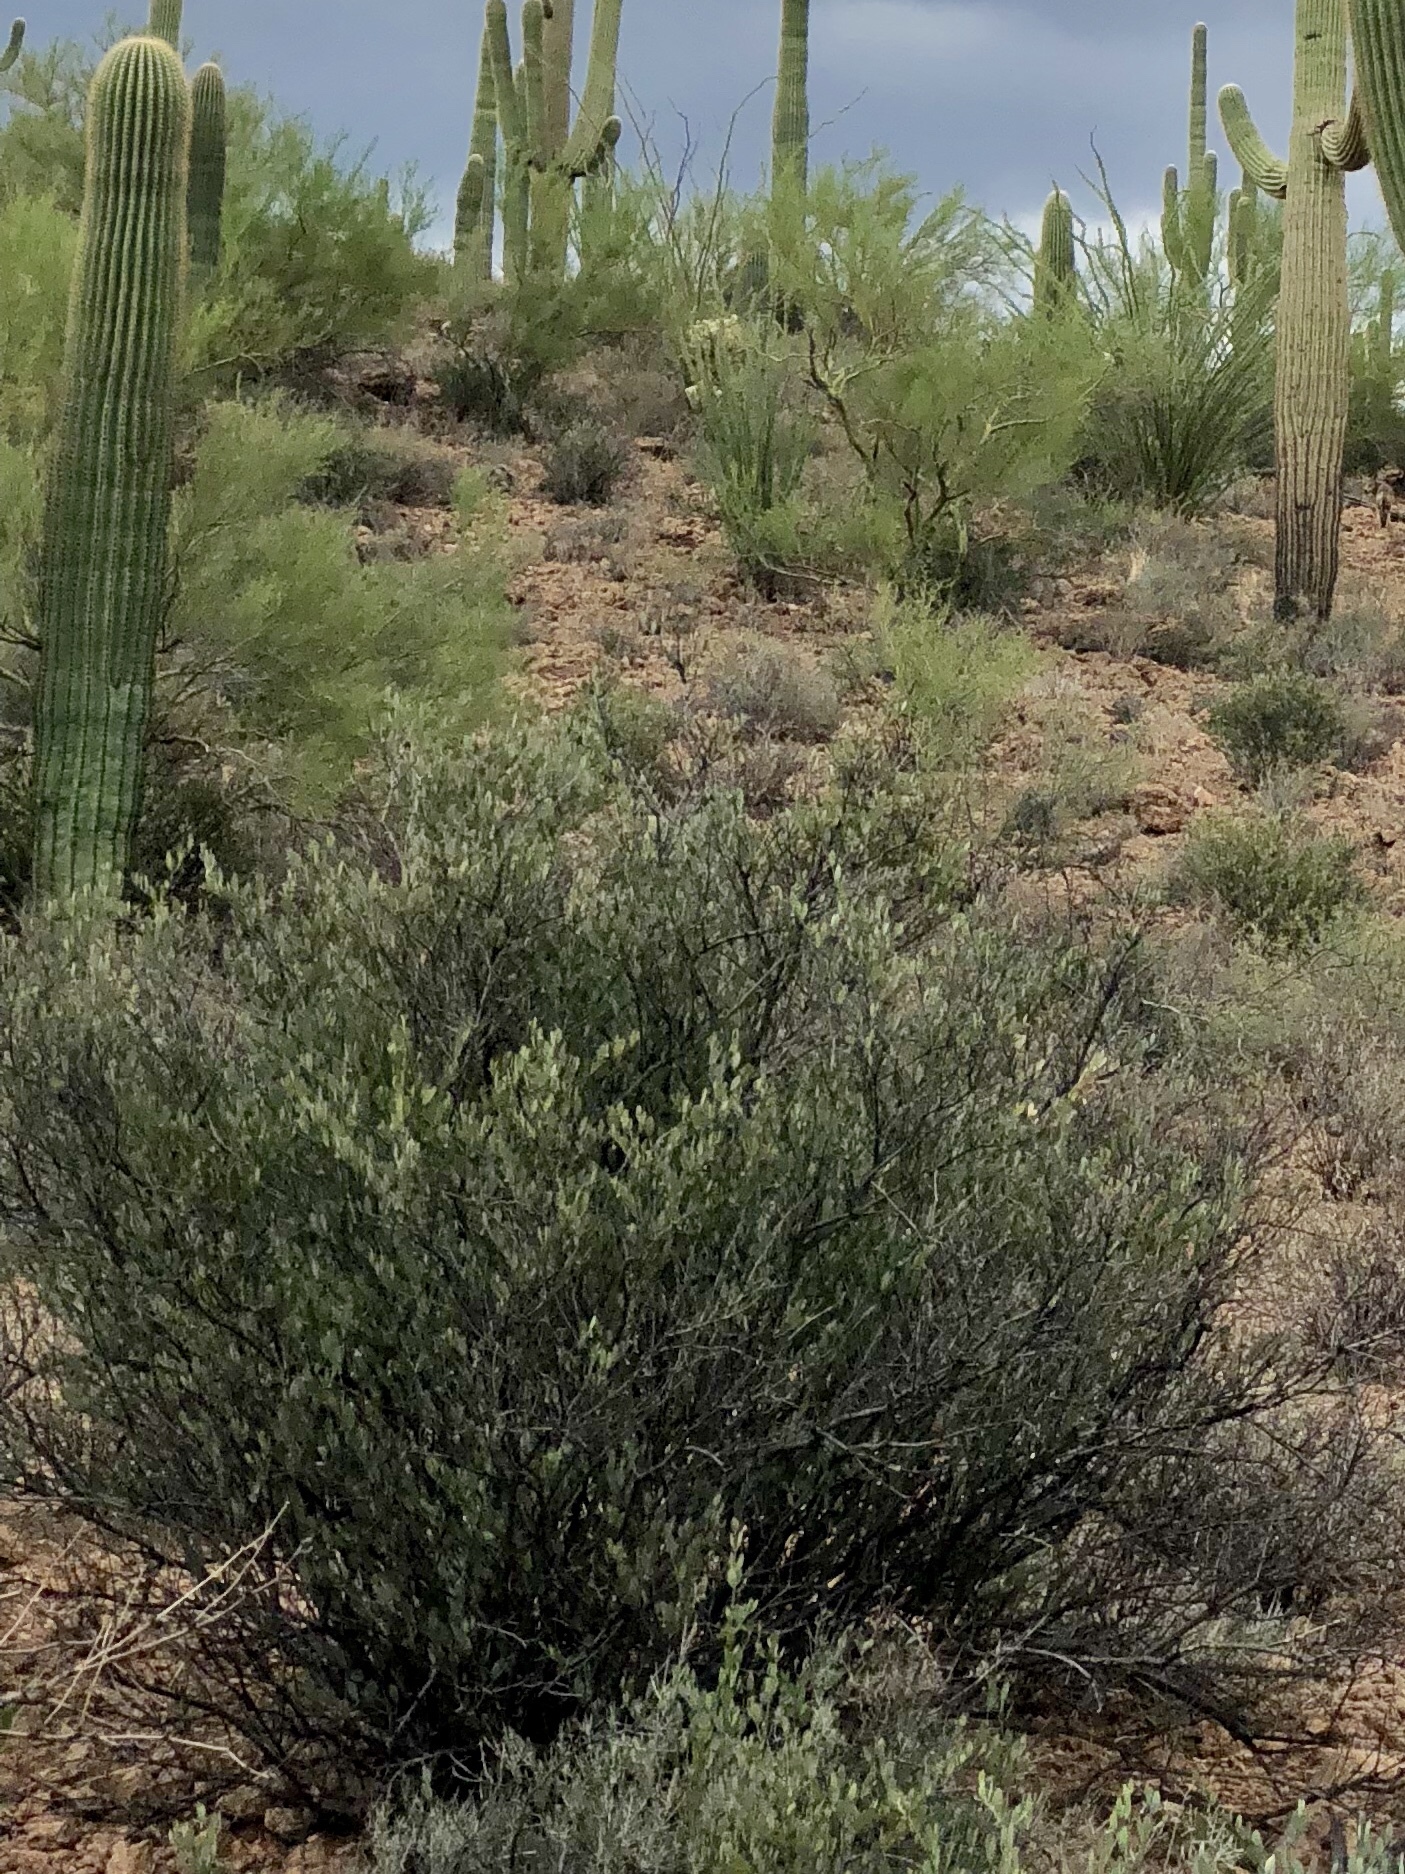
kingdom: Plantae
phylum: Tracheophyta
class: Magnoliopsida
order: Caryophyllales
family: Simmondsiaceae
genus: Simmondsia
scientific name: Simmondsia chinensis
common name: Jojoba
